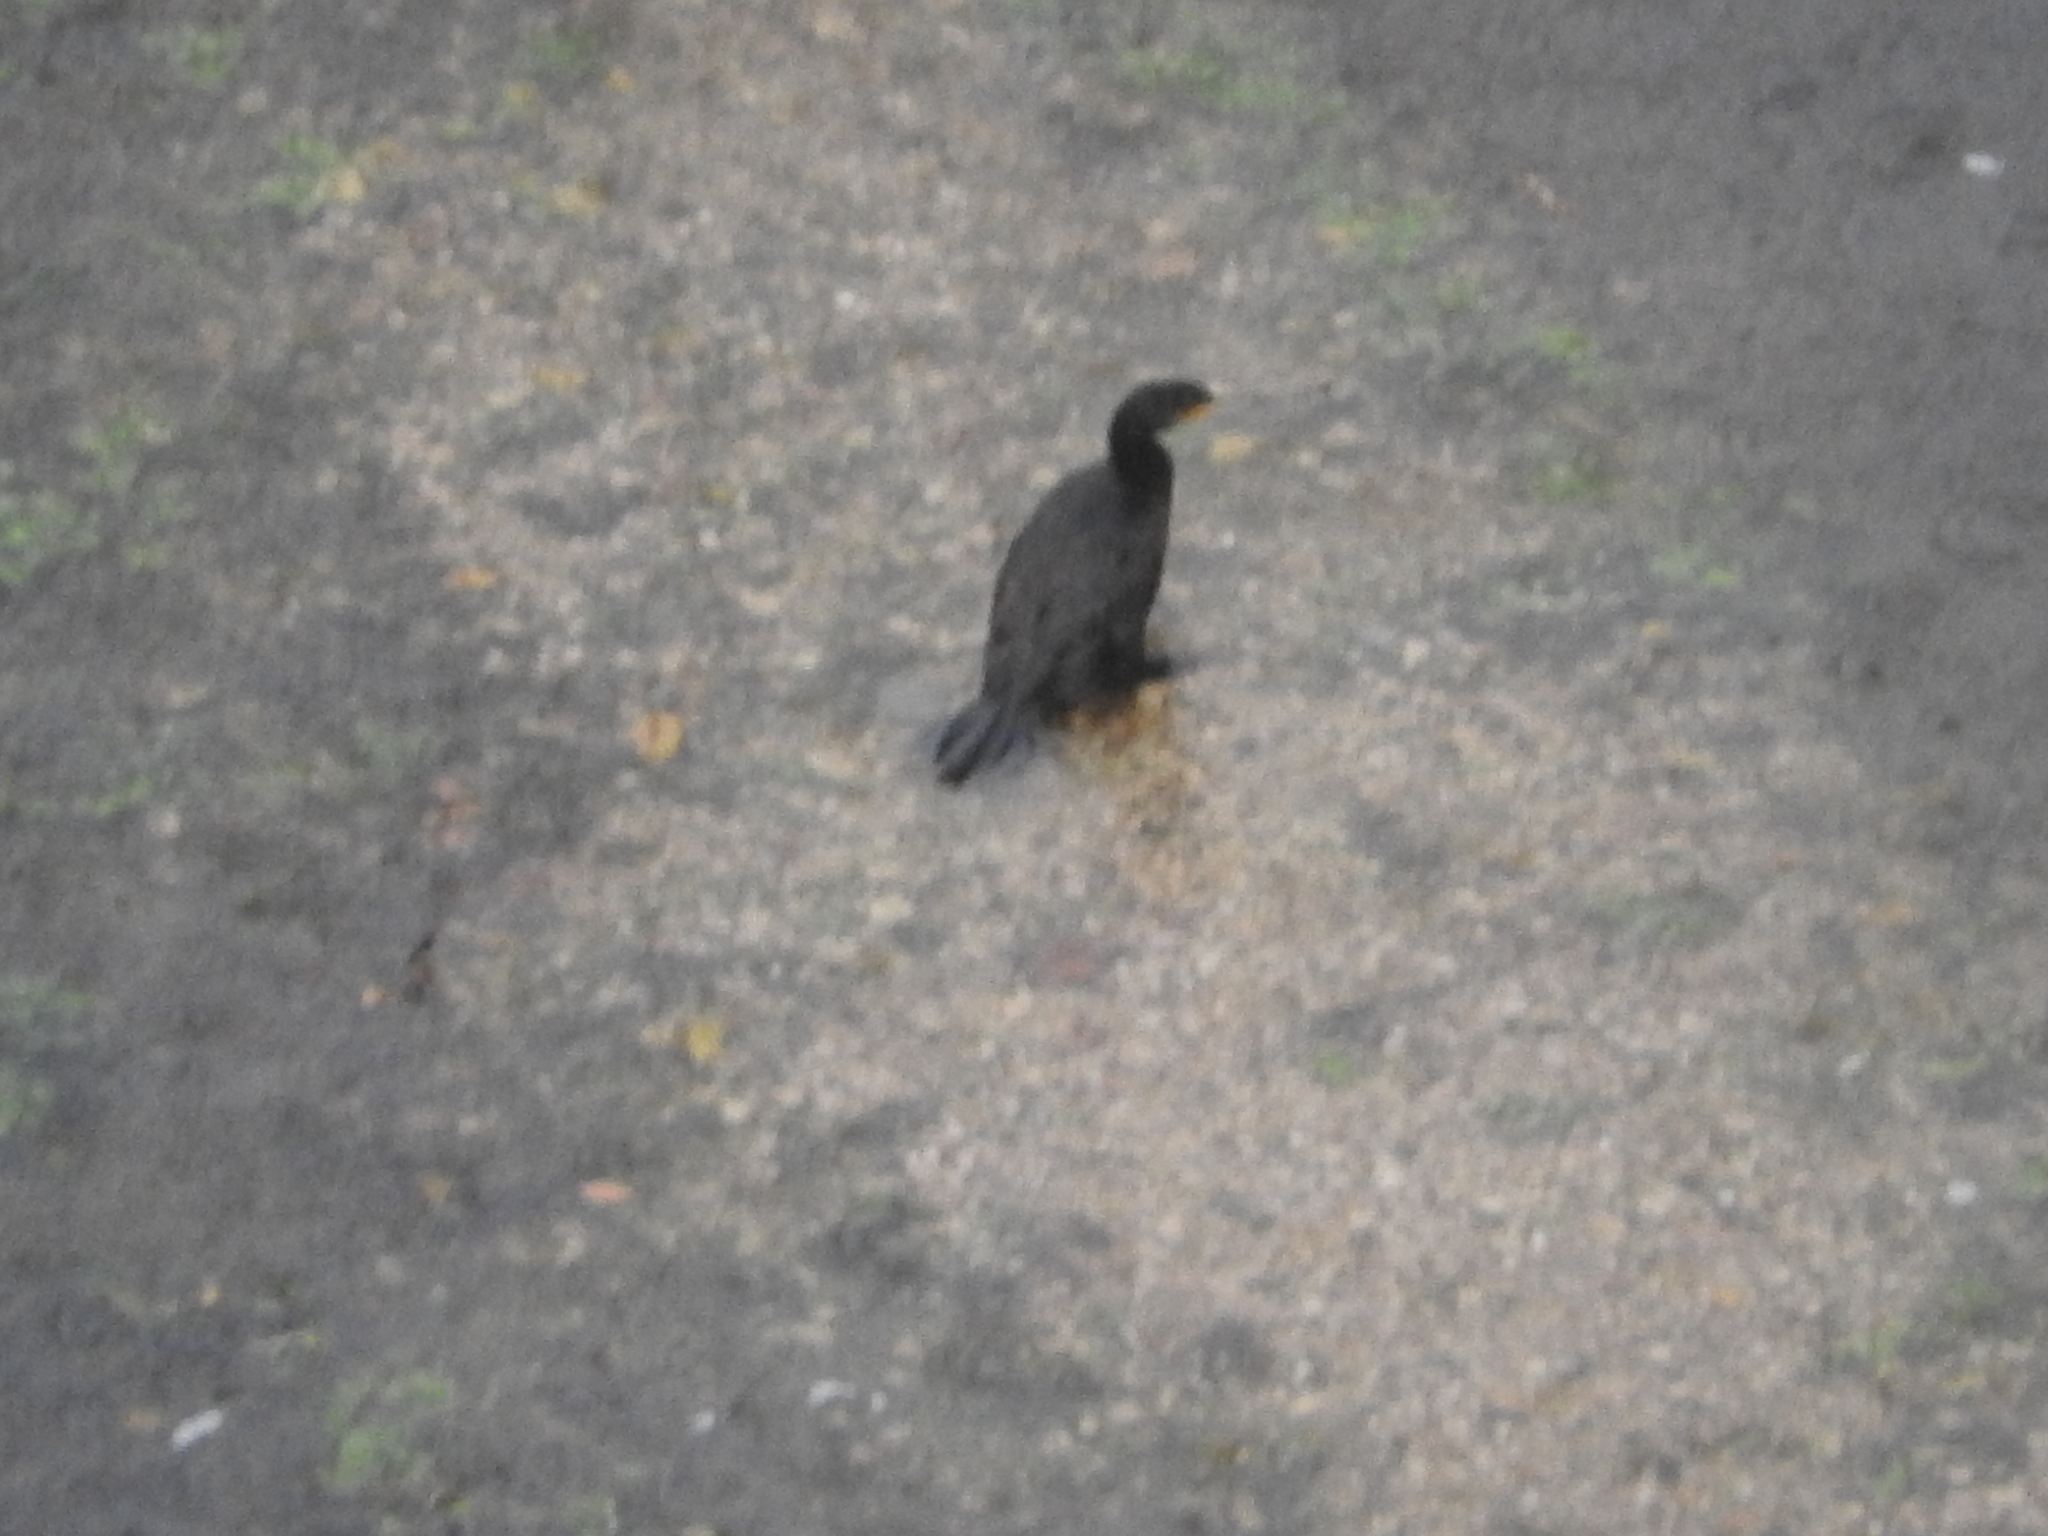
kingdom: Animalia
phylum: Chordata
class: Aves
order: Suliformes
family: Phalacrocoracidae
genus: Phalacrocorax
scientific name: Phalacrocorax carbo
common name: Great cormorant
